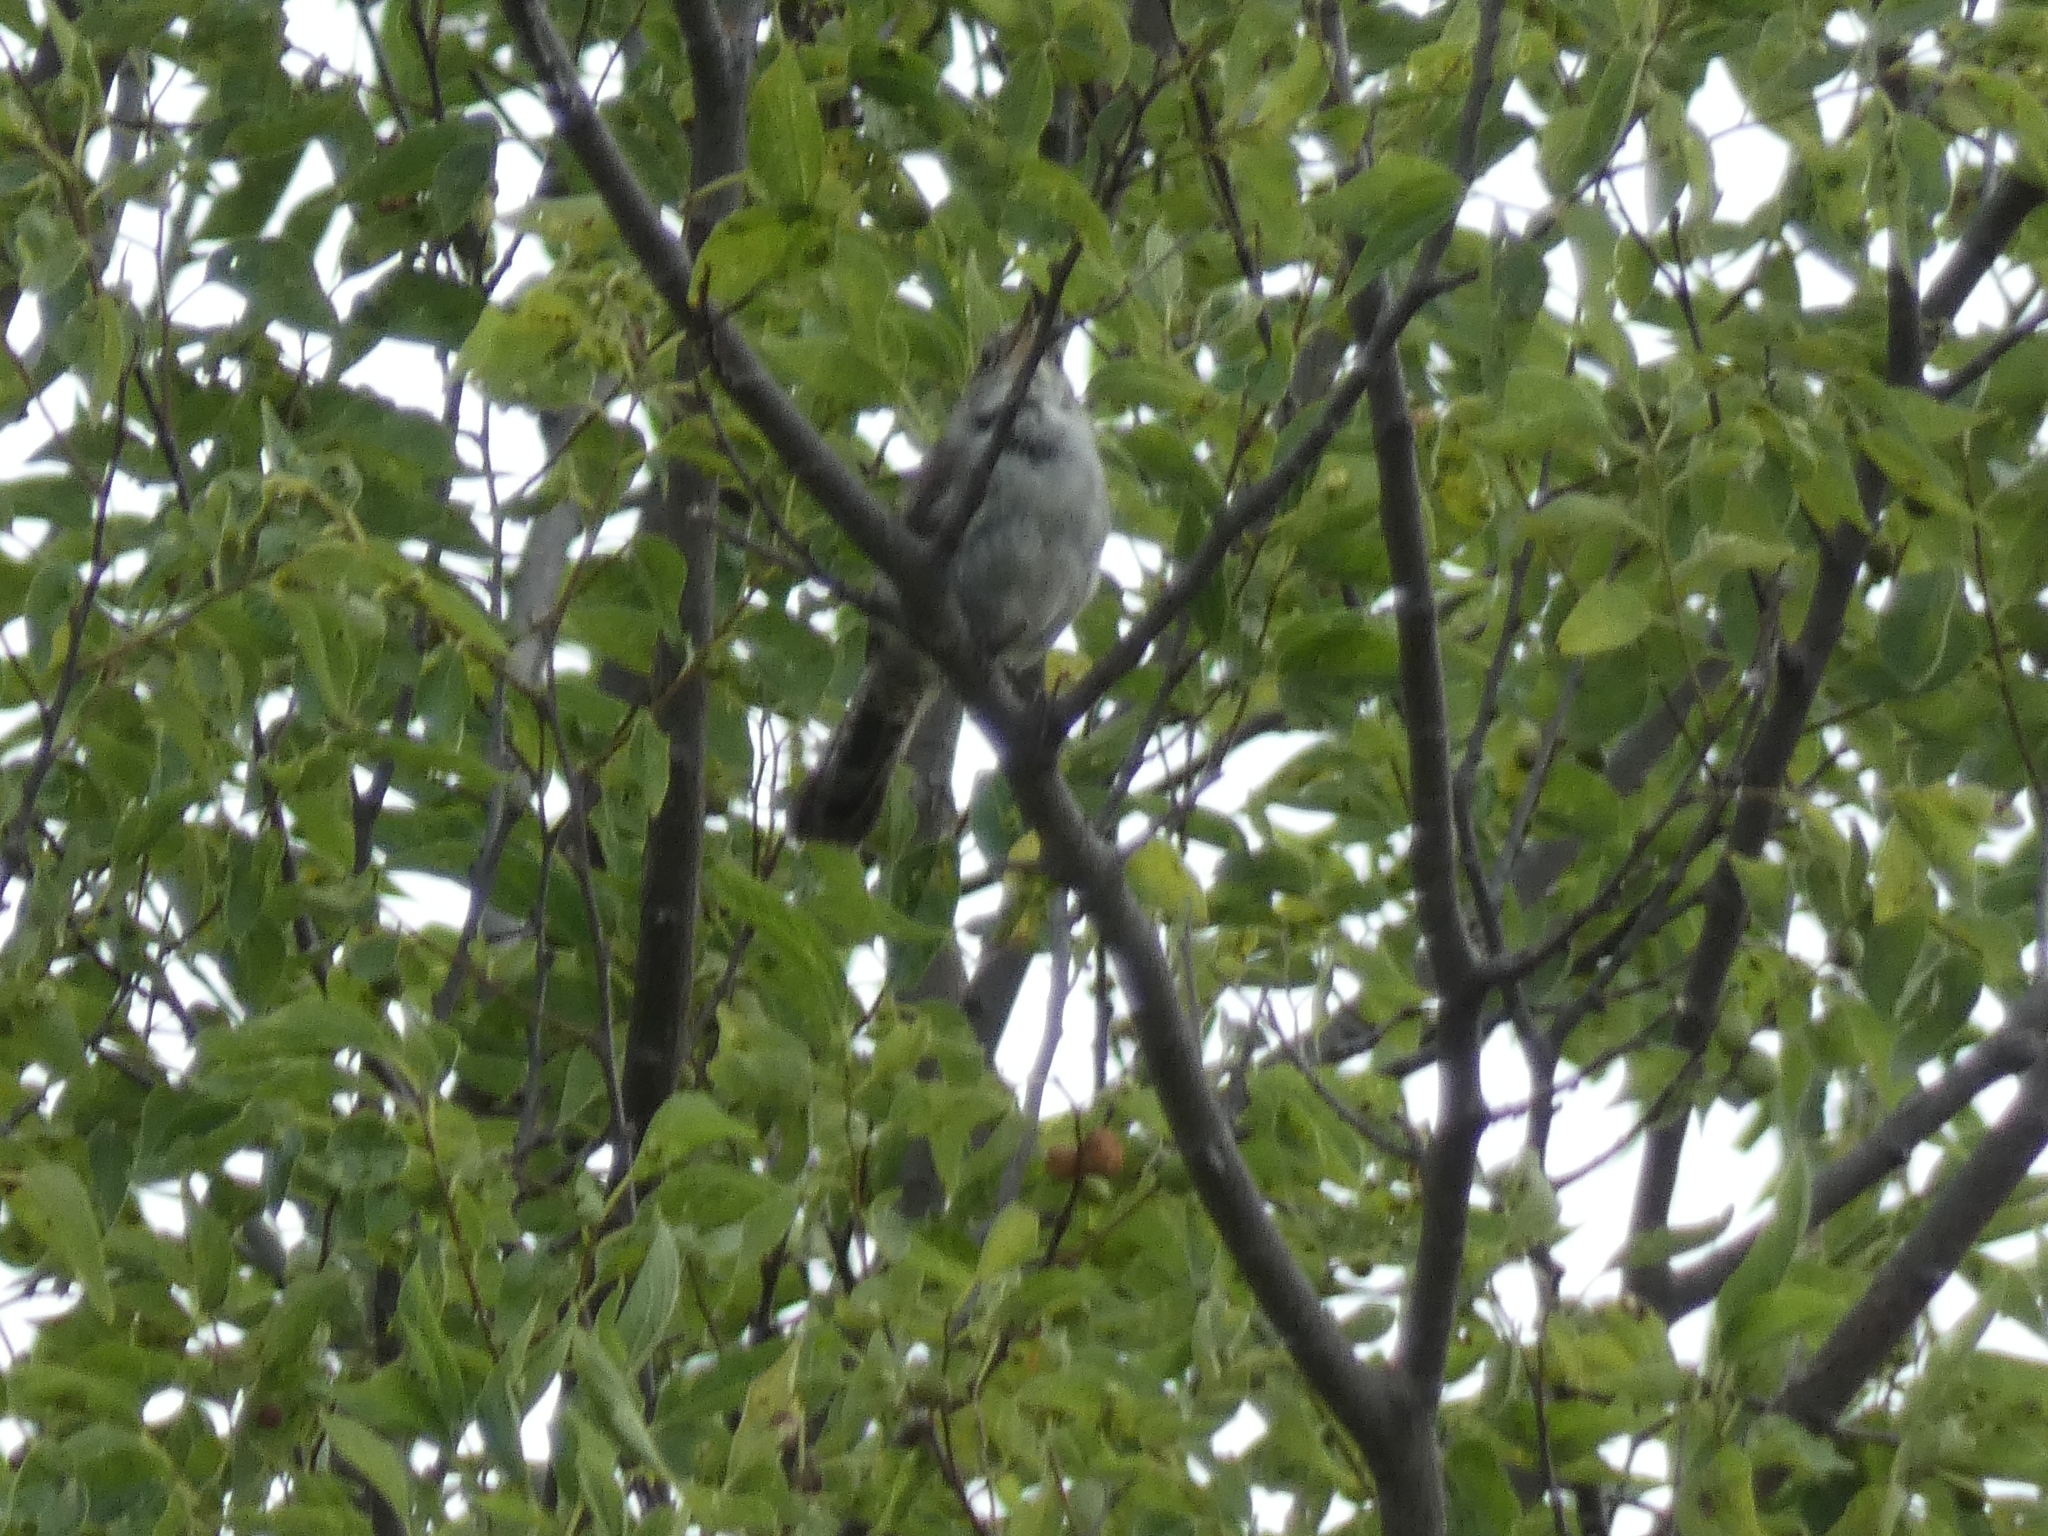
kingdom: Animalia
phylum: Chordata
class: Aves
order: Passeriformes
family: Troglodytidae
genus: Thryomanes
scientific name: Thryomanes bewickii
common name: Bewick's wren
